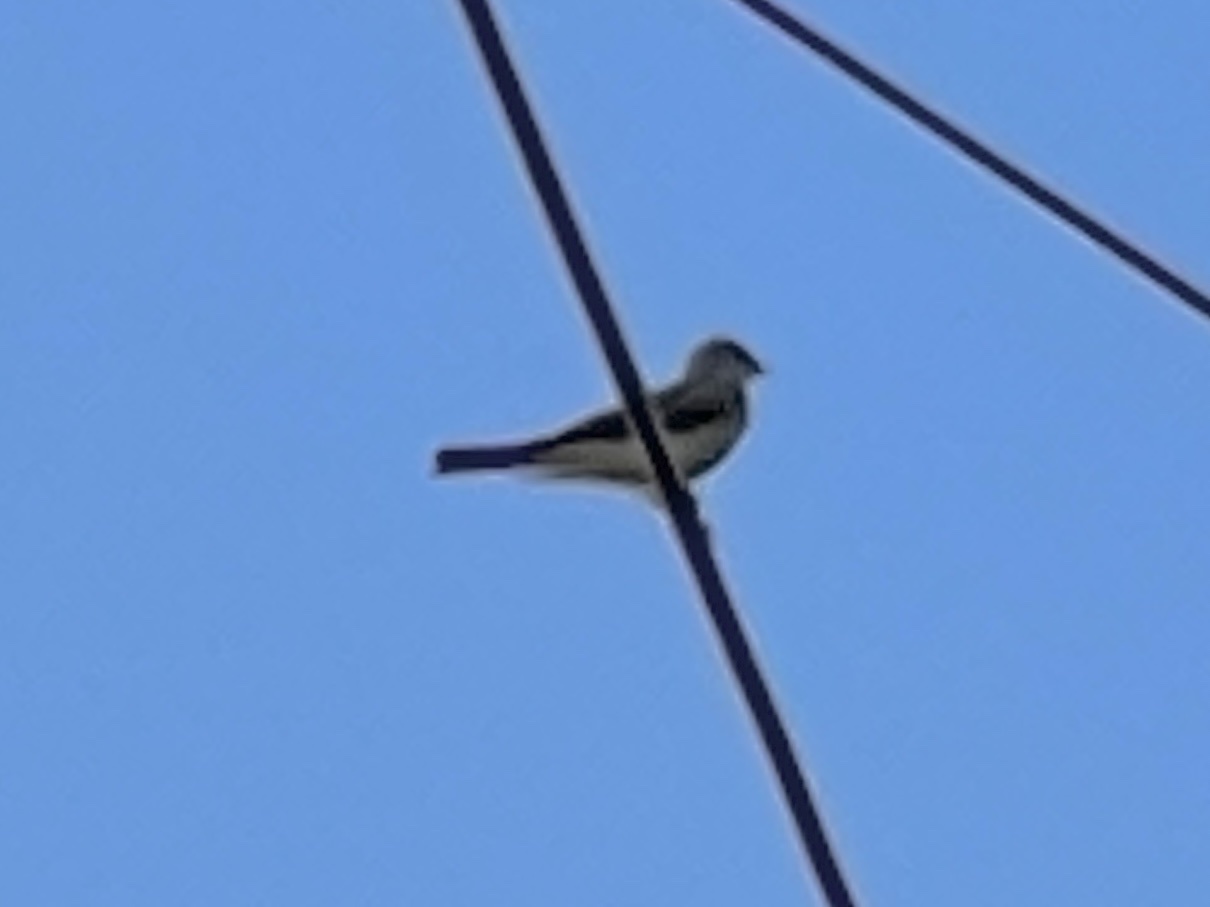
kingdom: Animalia
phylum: Chordata
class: Aves
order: Passeriformes
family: Tyrannidae
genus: Tyrannus
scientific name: Tyrannus verticalis
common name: Western kingbird
